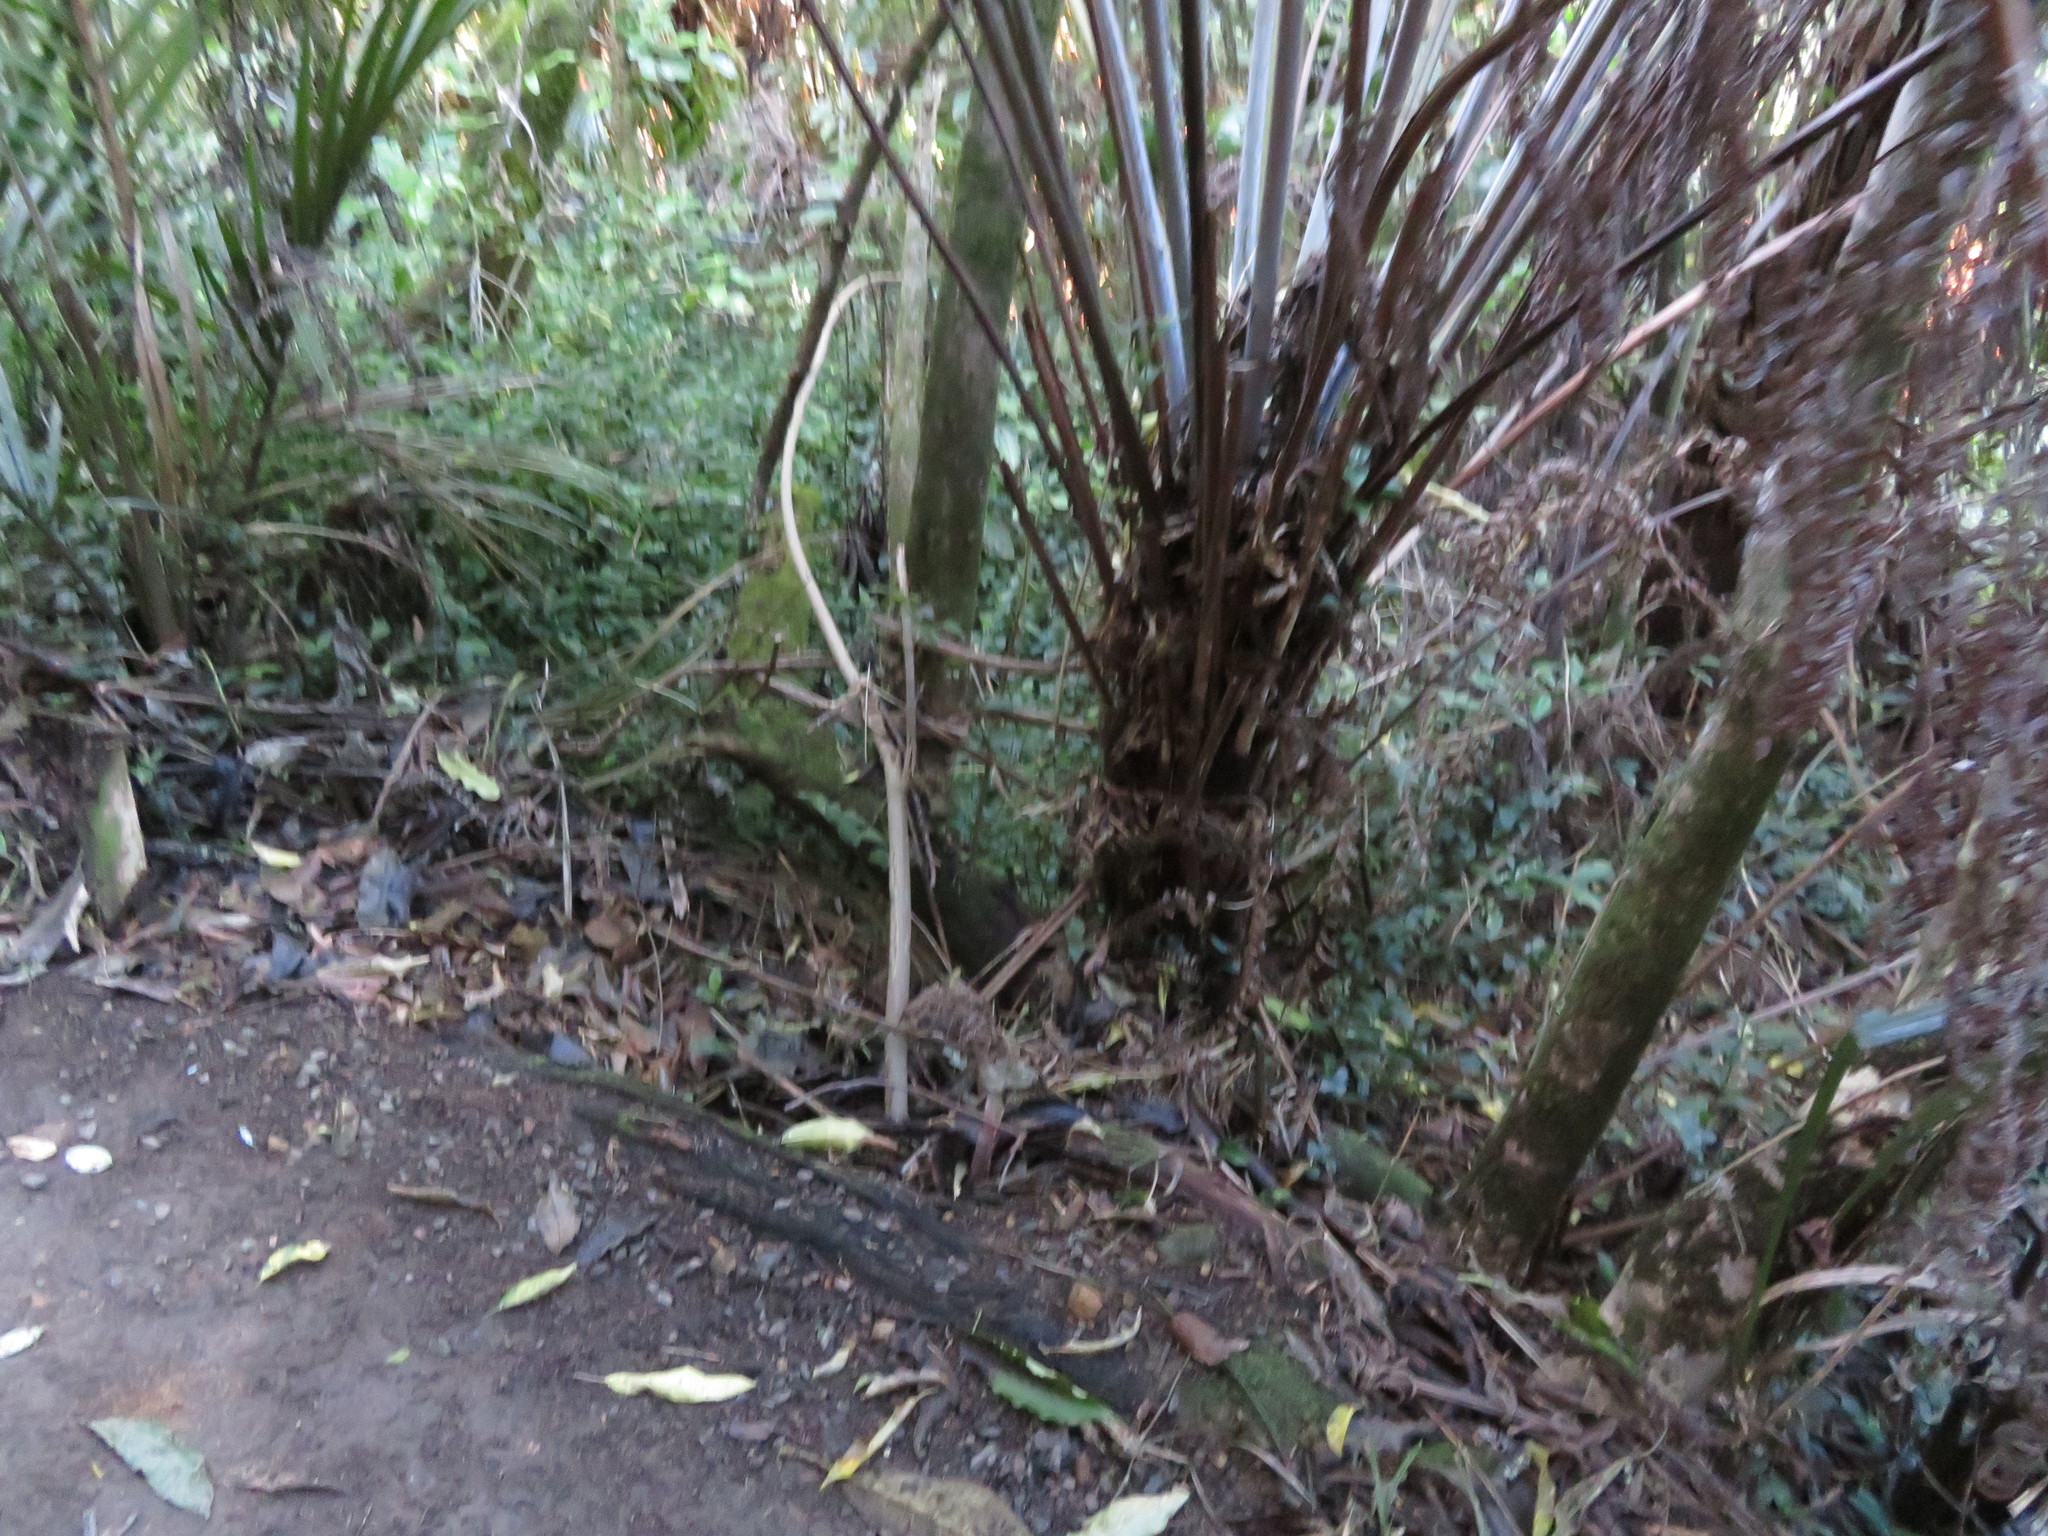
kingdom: Plantae
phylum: Tracheophyta
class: Polypodiopsida
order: Cyatheales
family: Cyatheaceae
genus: Alsophila
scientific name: Alsophila dealbata
